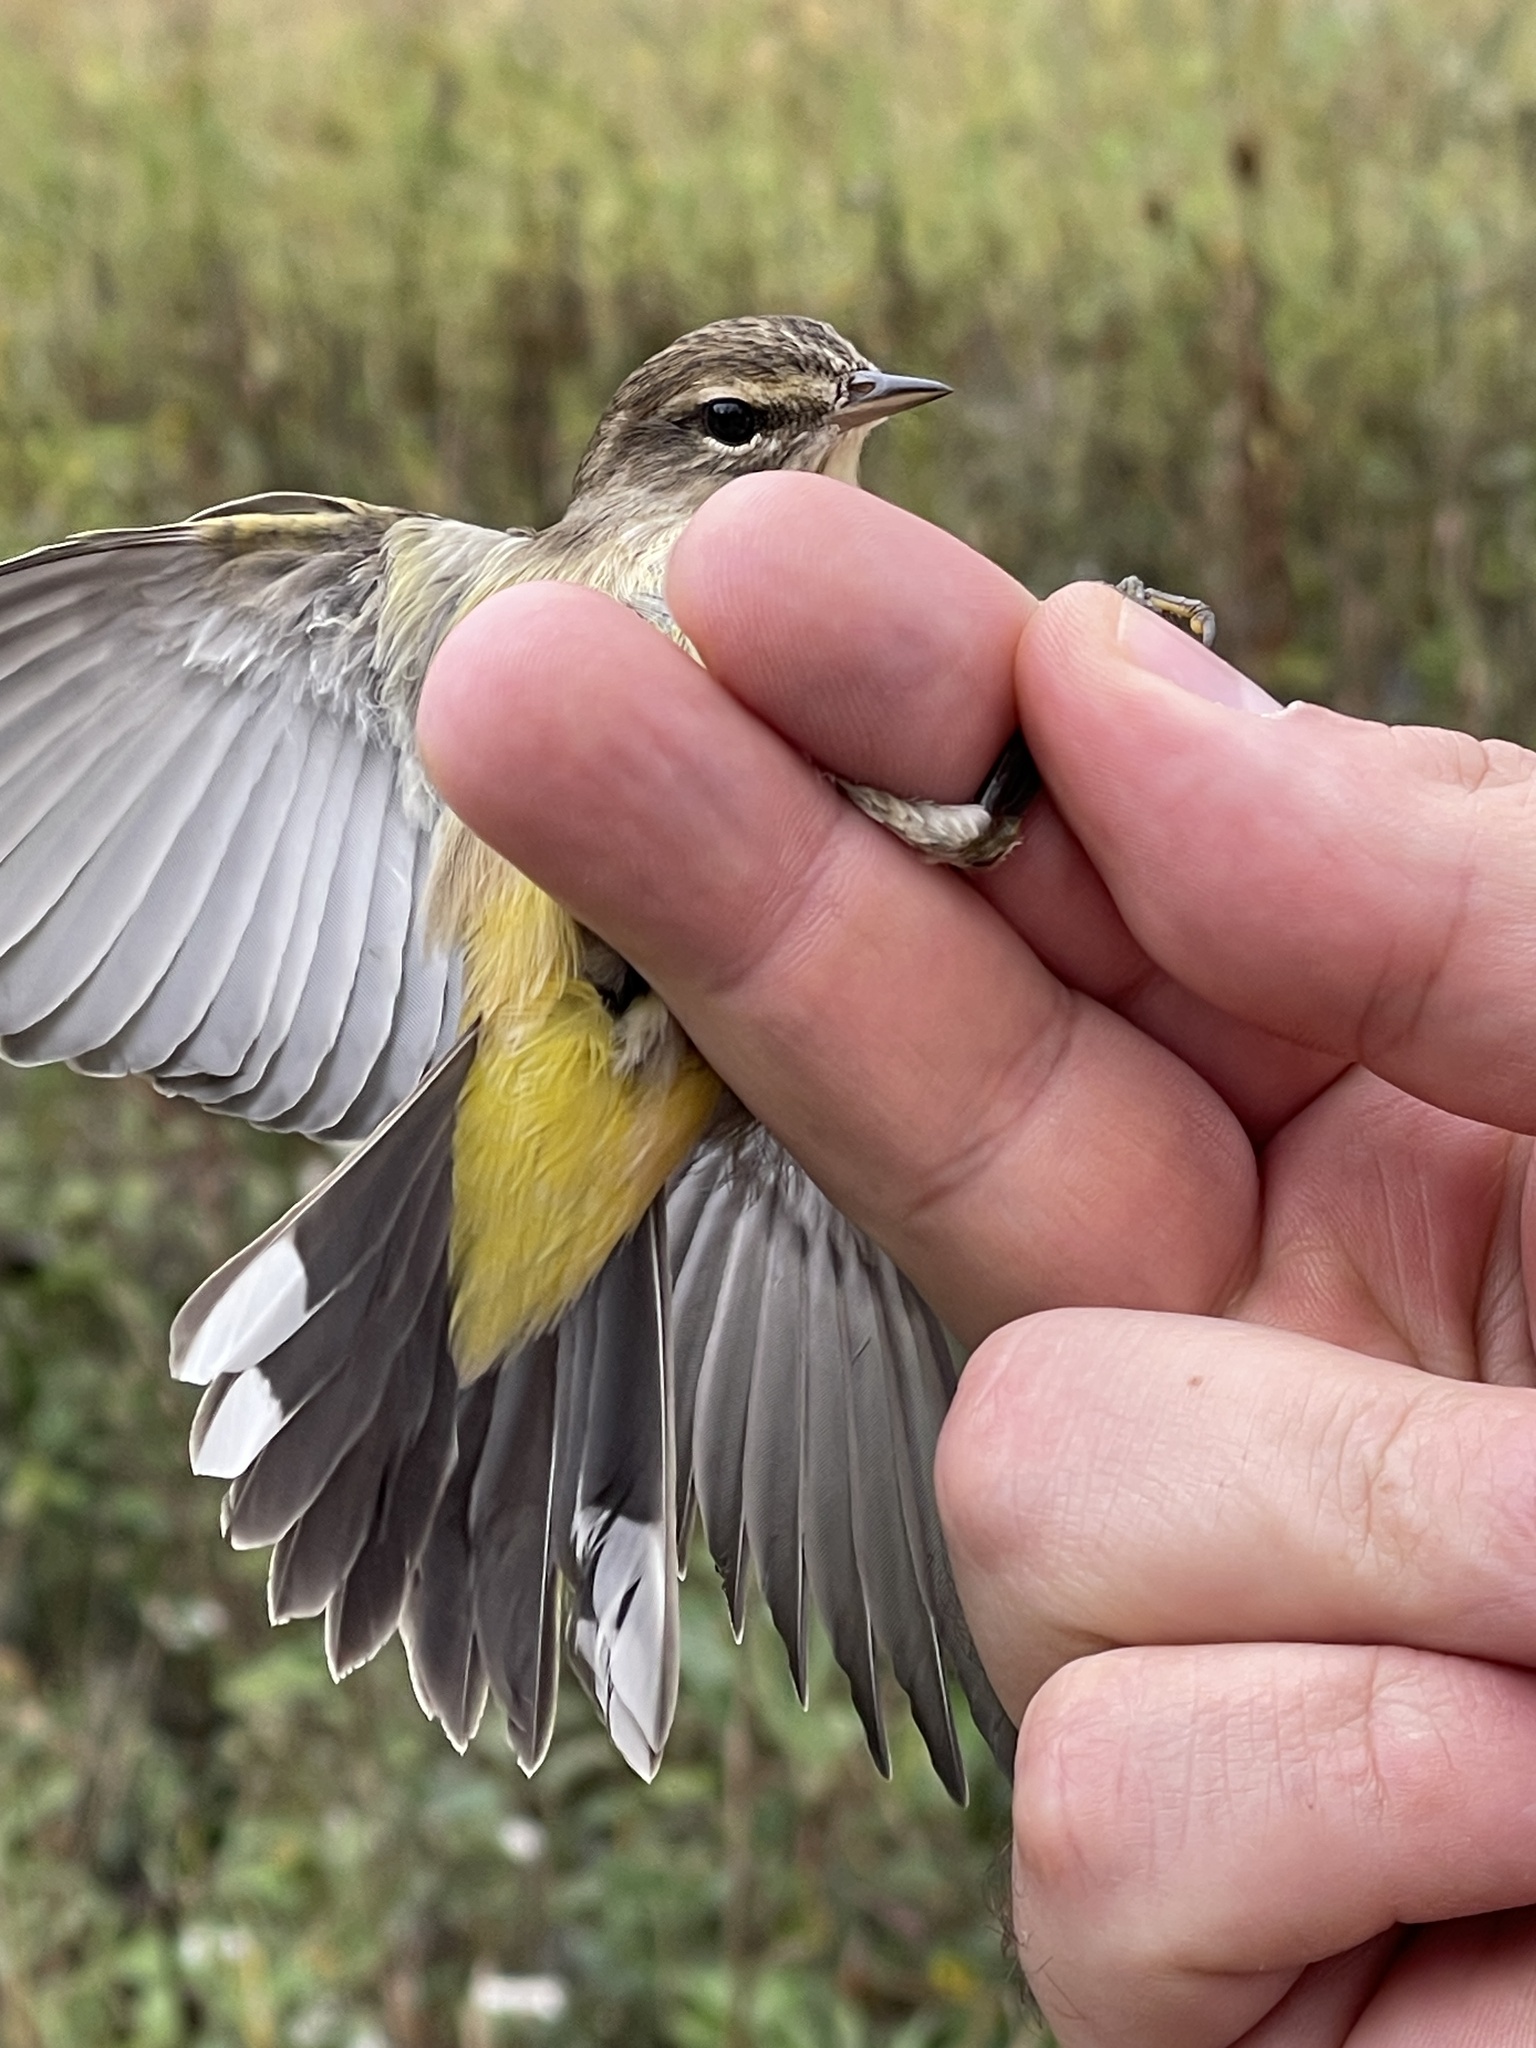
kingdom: Animalia
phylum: Chordata
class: Aves
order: Passeriformes
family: Parulidae
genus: Setophaga
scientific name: Setophaga palmarum
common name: Palm warbler
